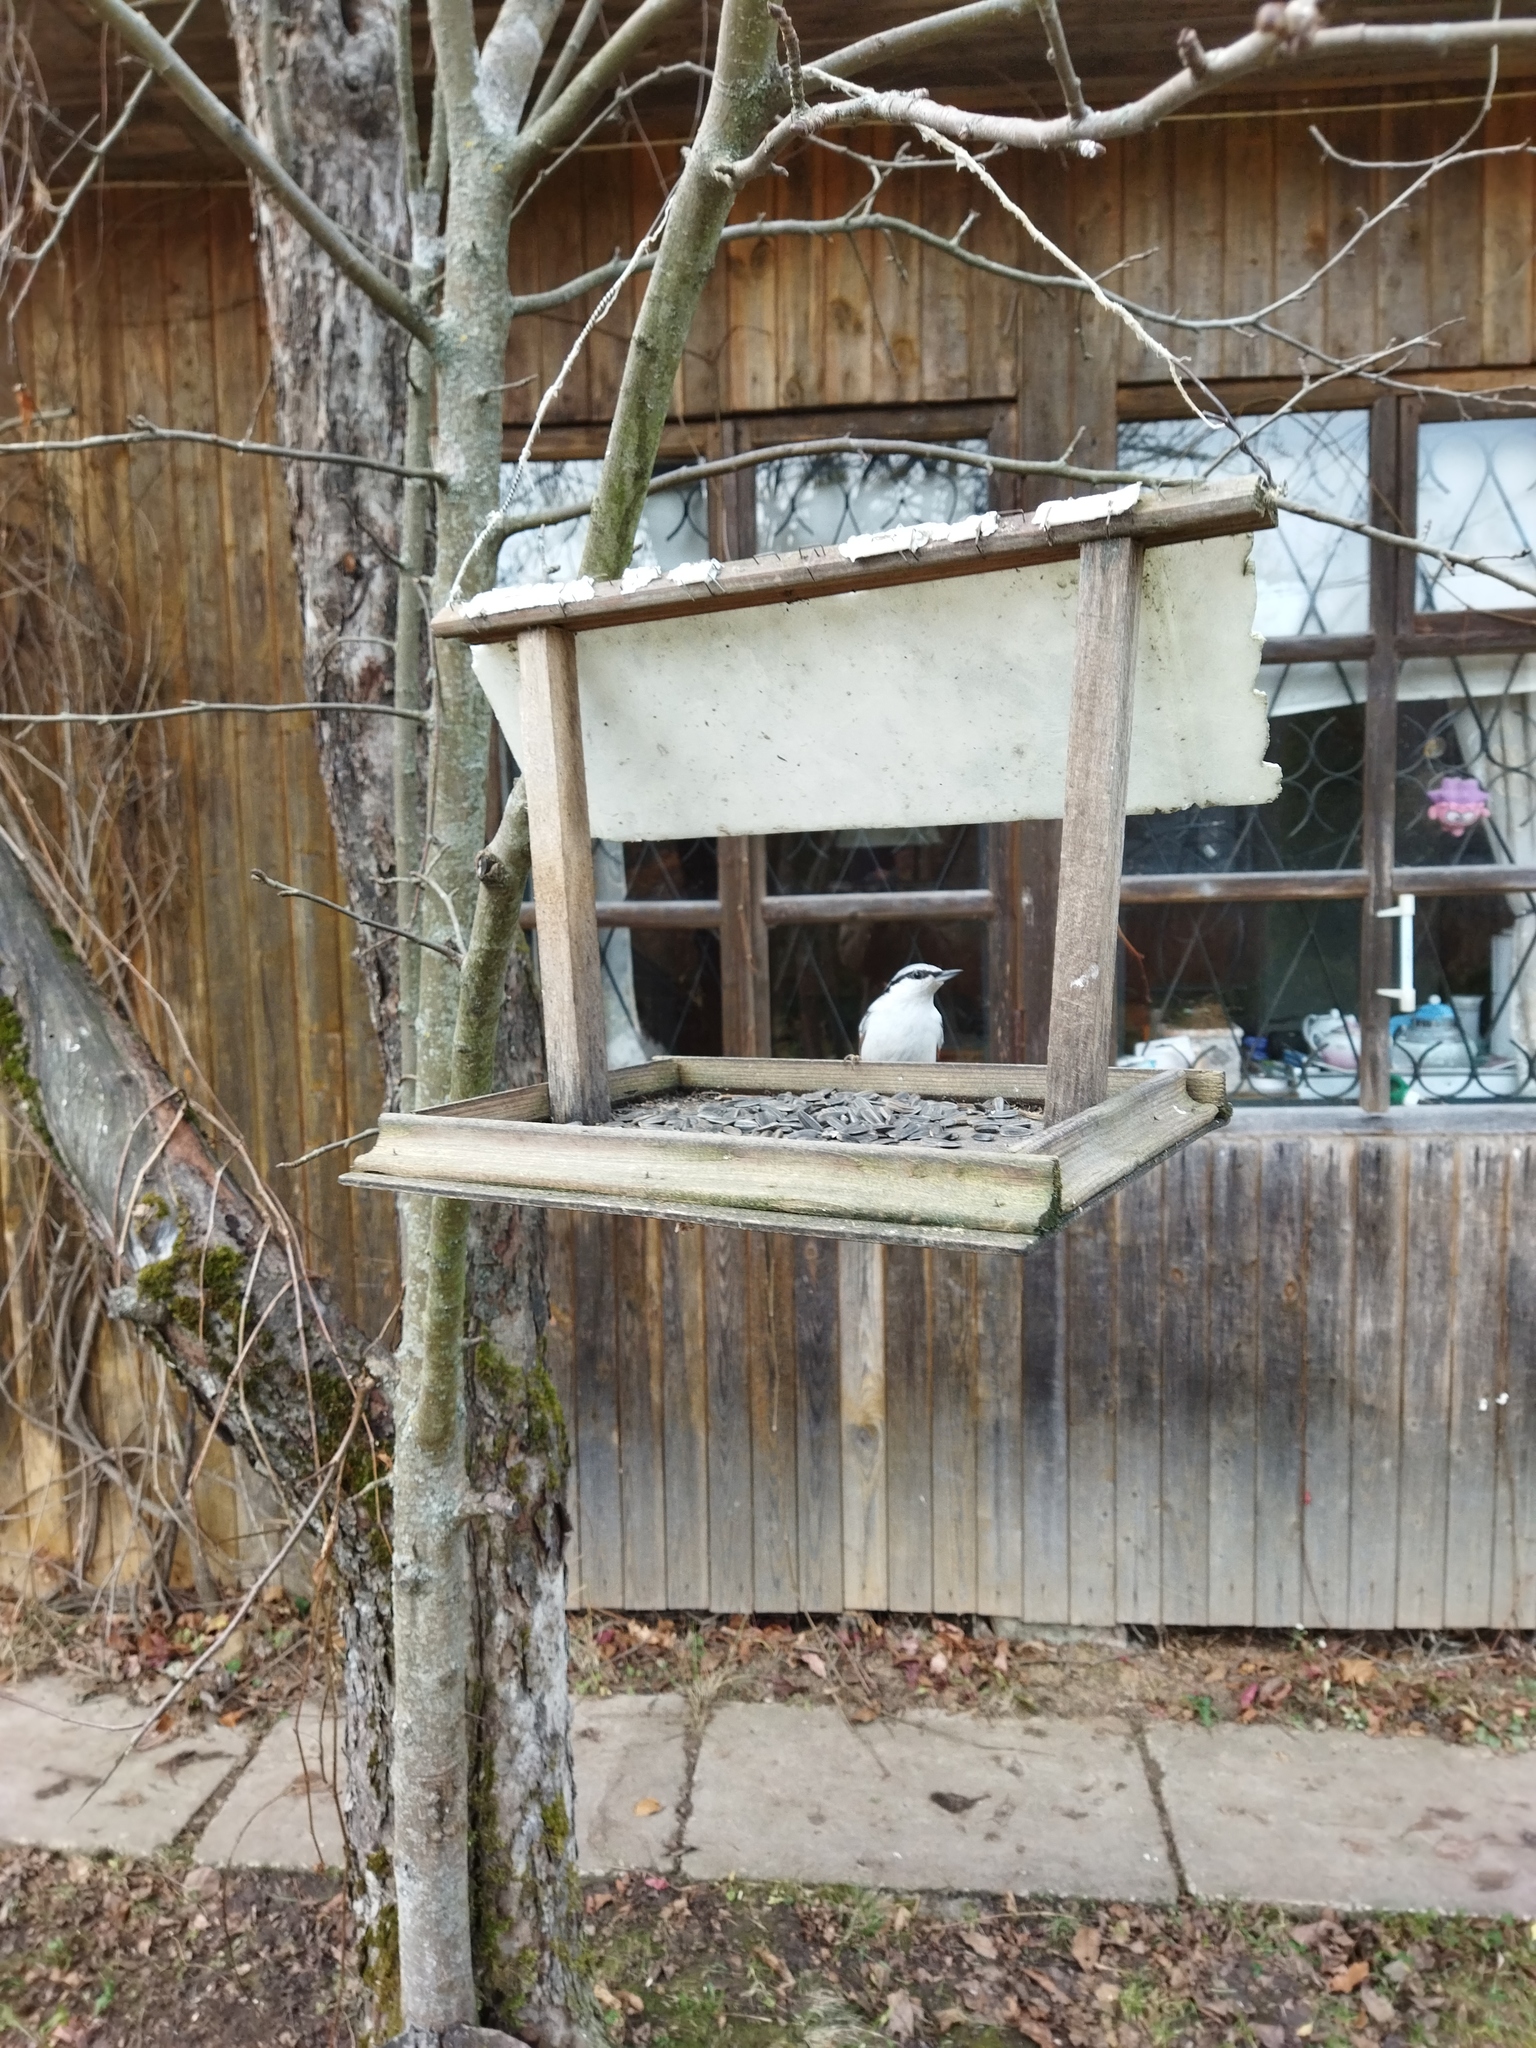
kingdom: Animalia
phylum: Chordata
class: Aves
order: Passeriformes
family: Sittidae
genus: Sitta
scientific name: Sitta europaea
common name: Eurasian nuthatch
